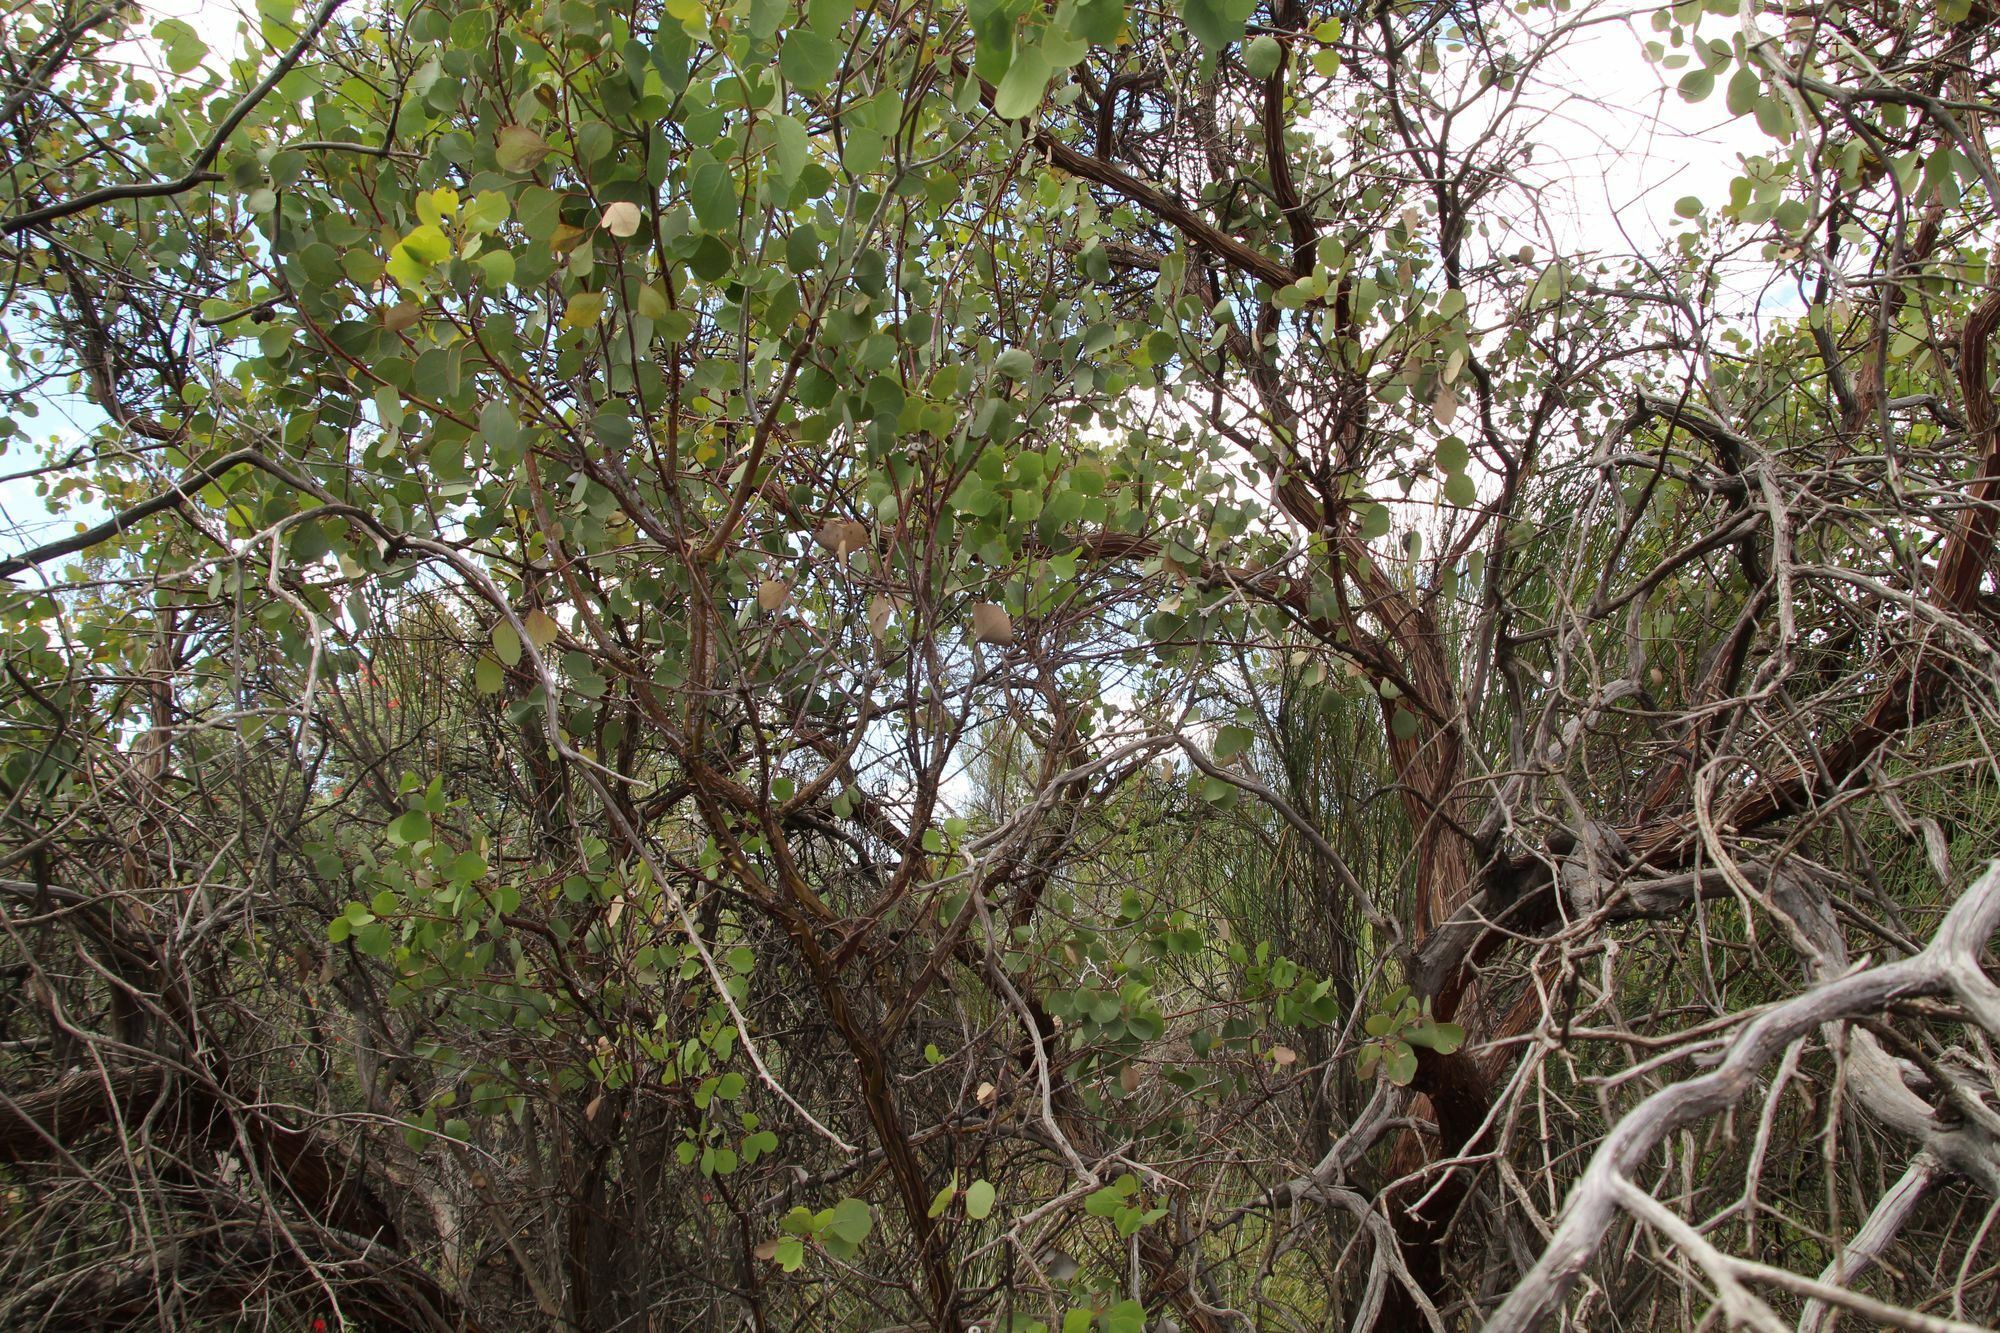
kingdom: Plantae
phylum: Tracheophyta
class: Magnoliopsida
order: Myrtales
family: Myrtaceae
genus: Eucalyptus
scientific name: Eucalyptus orbifolia
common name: Disc-leaf mallee
